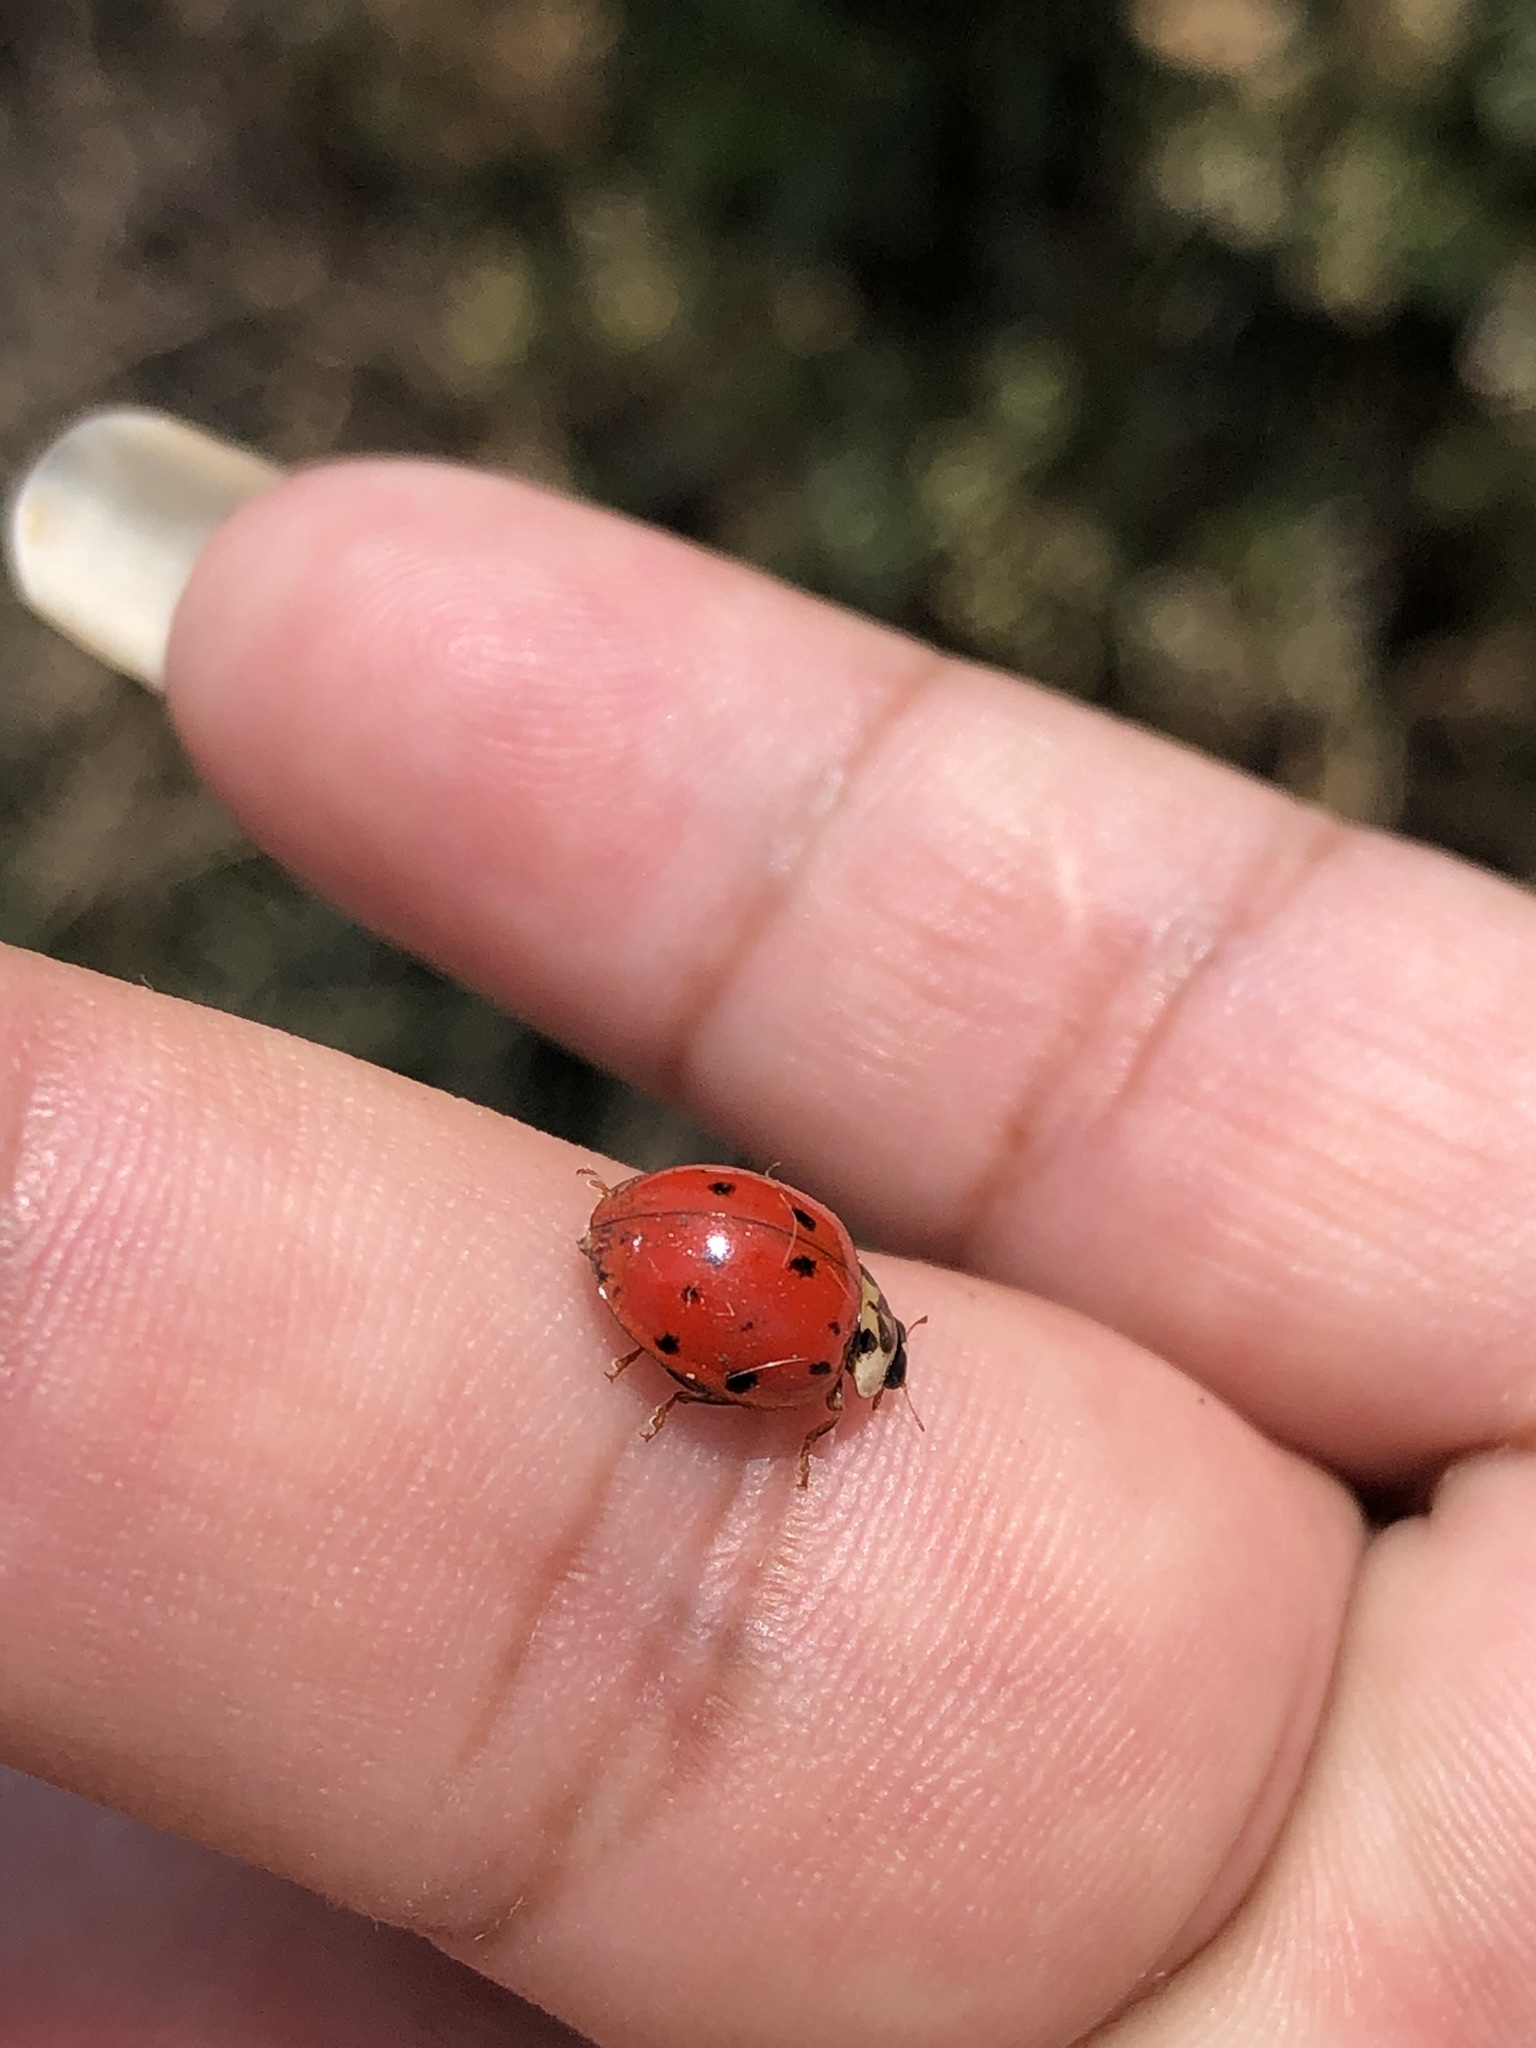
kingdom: Animalia
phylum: Arthropoda
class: Insecta
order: Coleoptera
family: Coccinellidae
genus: Harmonia
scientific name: Harmonia axyridis
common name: Harlequin ladybird
